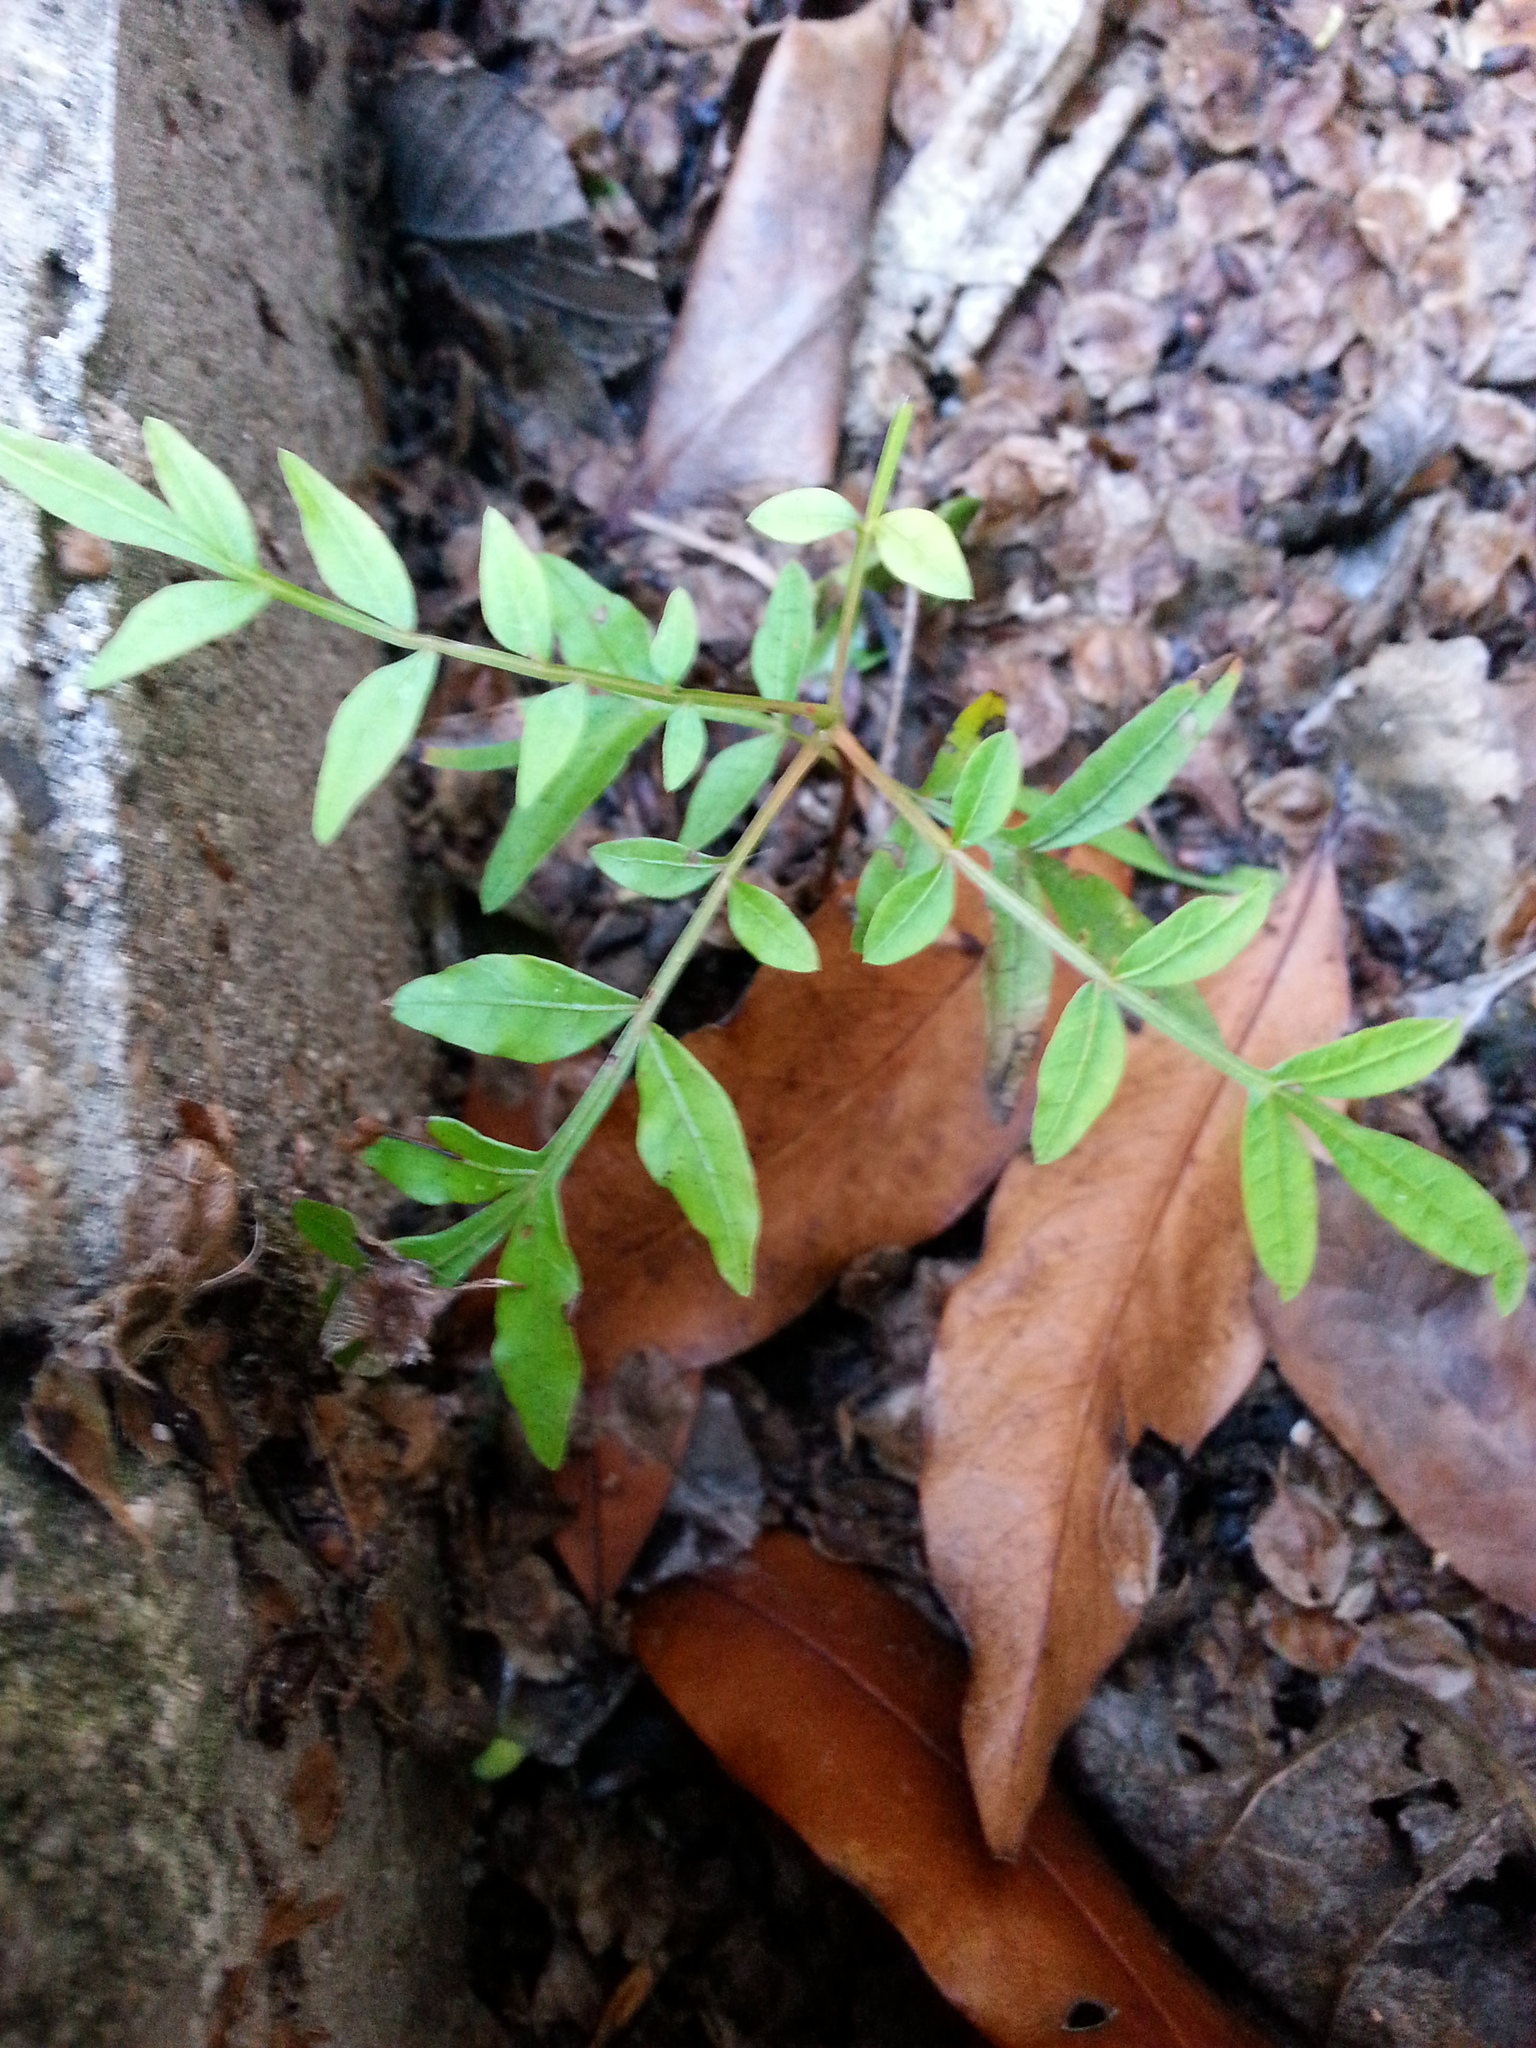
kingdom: Plantae
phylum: Tracheophyta
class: Magnoliopsida
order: Sapindales
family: Anacardiaceae
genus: Pistacia
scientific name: Pistacia chinensis
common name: Chinese pistache
